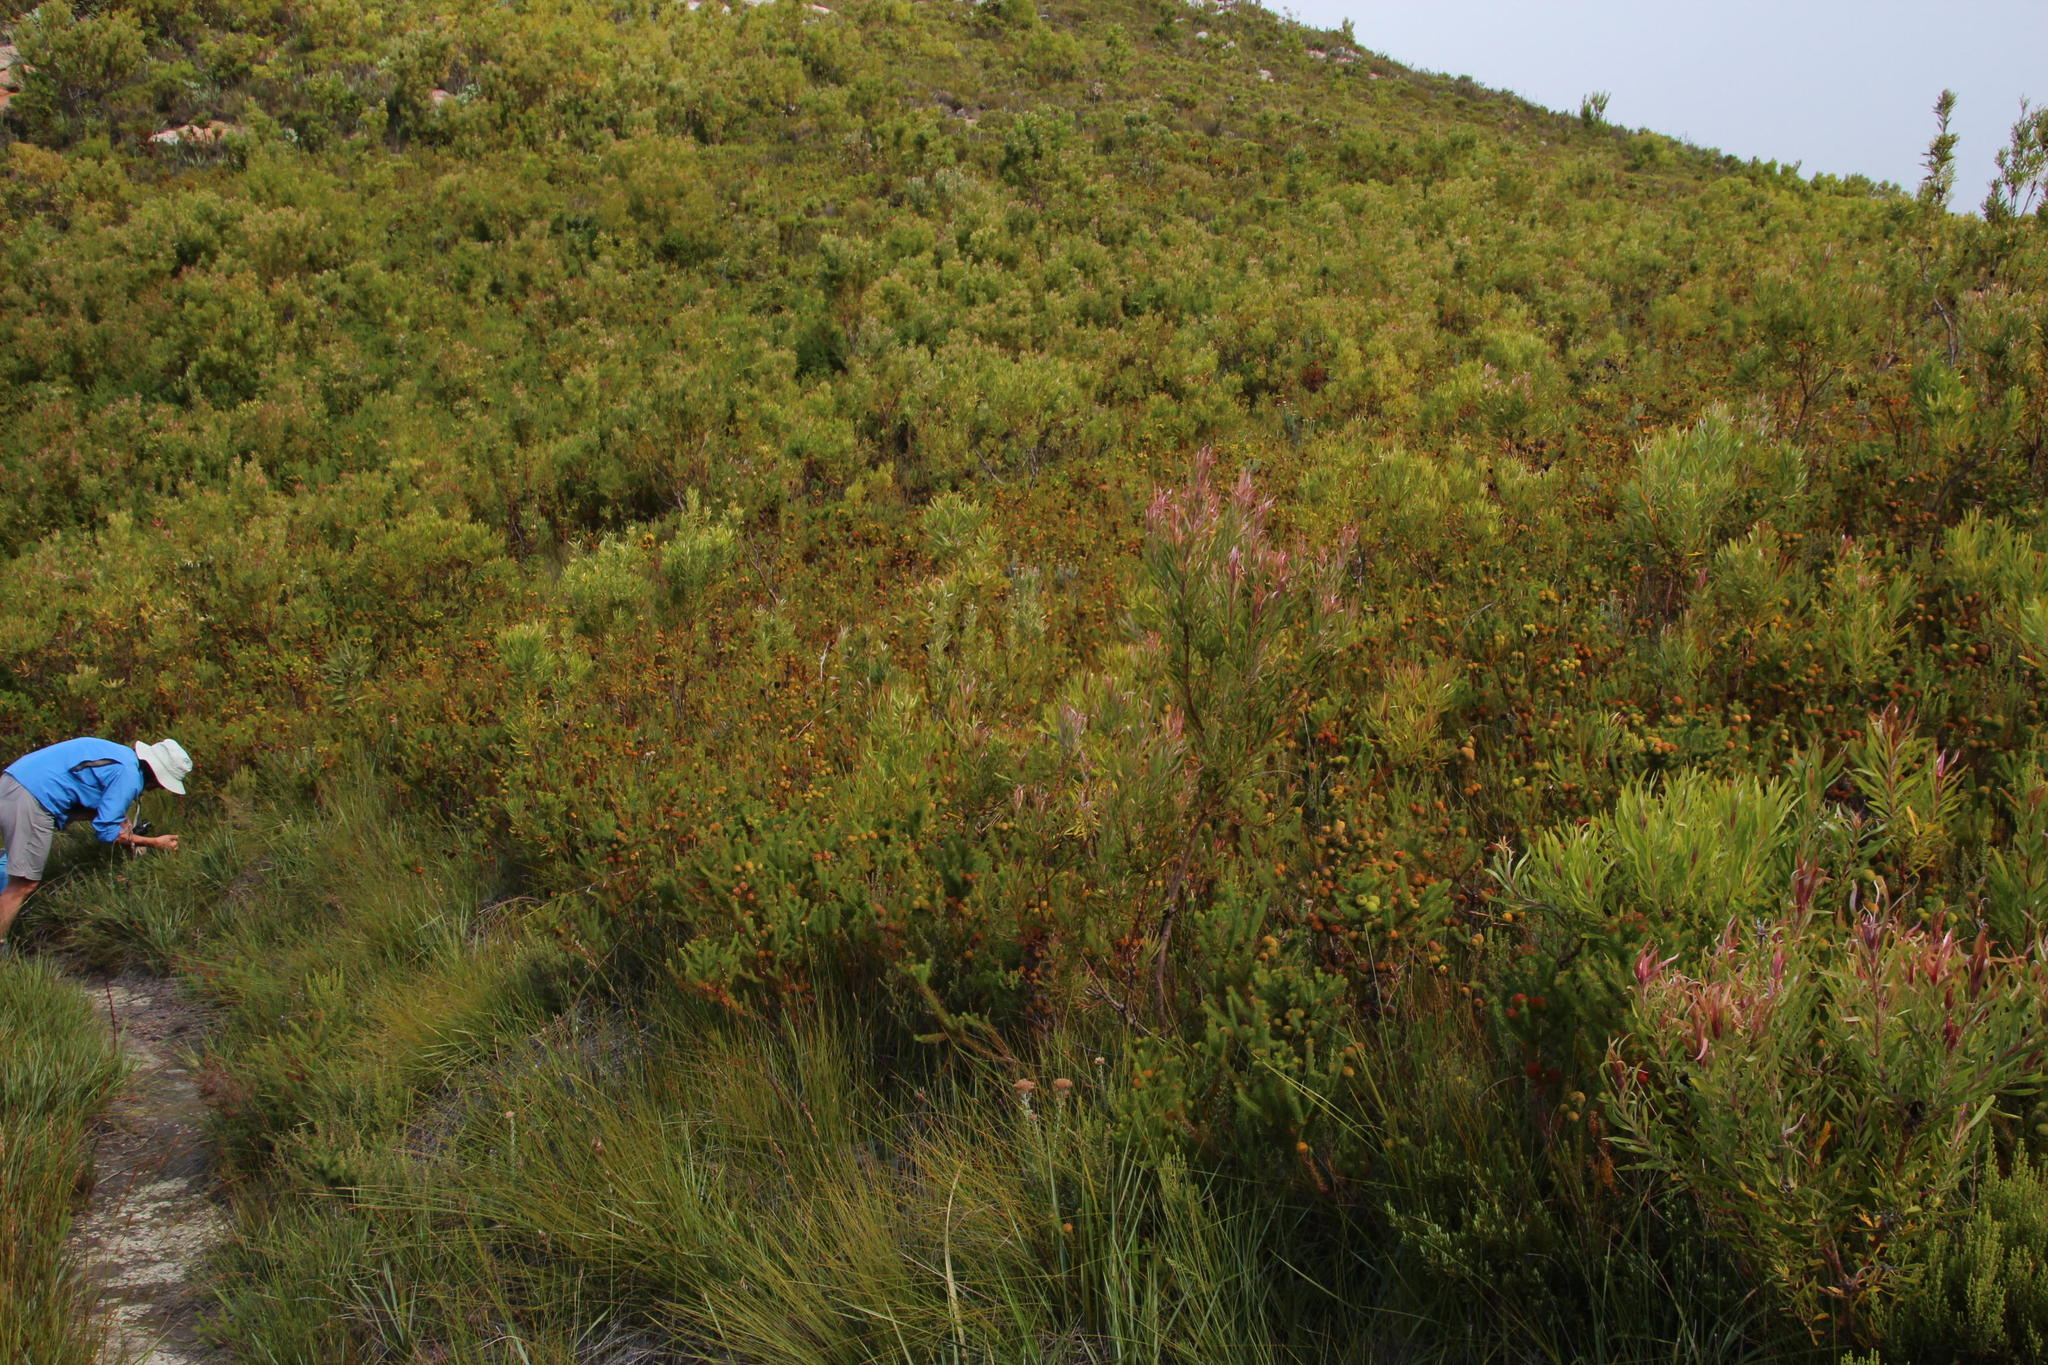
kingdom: Plantae
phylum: Tracheophyta
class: Magnoliopsida
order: Bruniales
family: Bruniaceae
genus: Berzelia
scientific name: Berzelia galpinii
